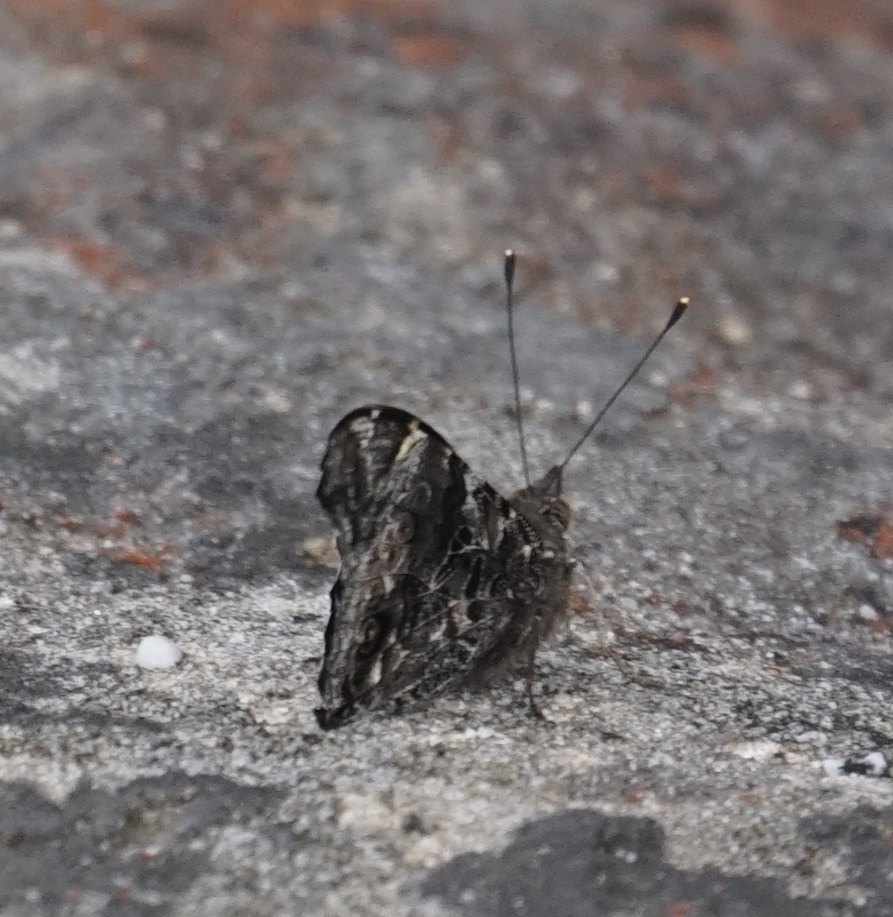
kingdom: Animalia
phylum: Arthropoda
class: Insecta
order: Lepidoptera
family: Nymphalidae
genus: Vanessa
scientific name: Vanessa itea
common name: Yellow admiral
